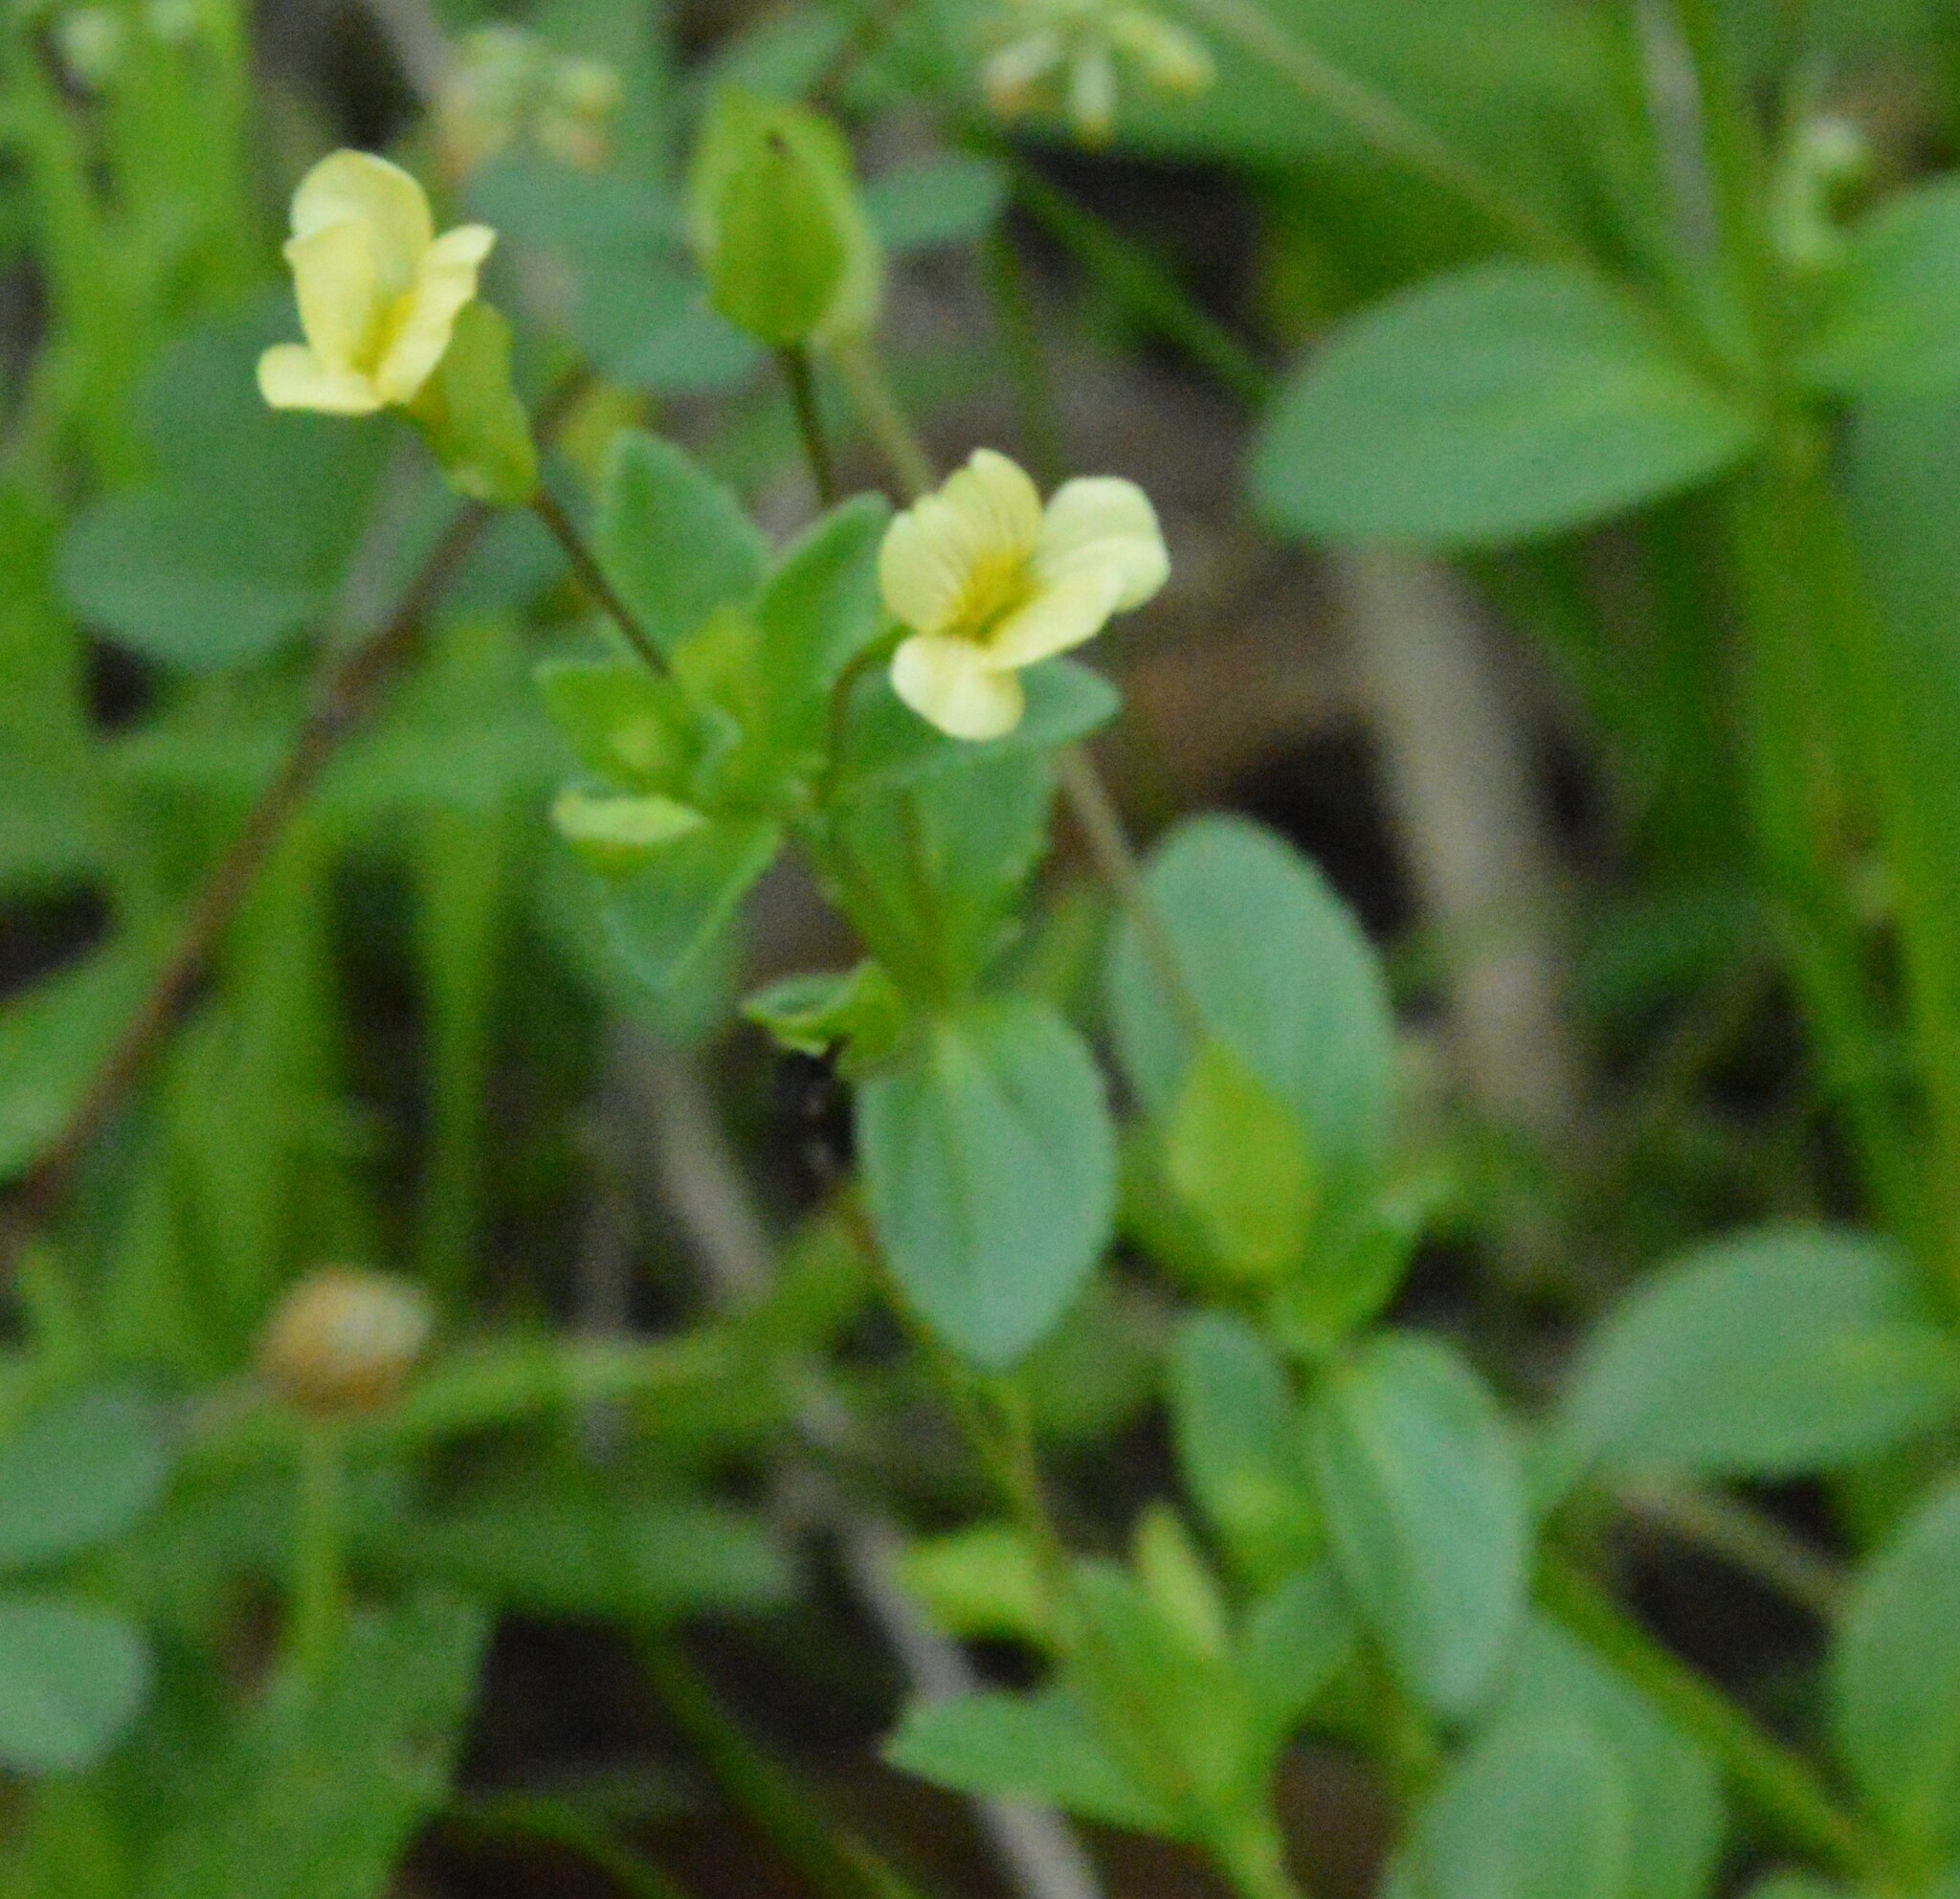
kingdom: Plantae
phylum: Tracheophyta
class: Magnoliopsida
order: Lamiales
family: Plantaginaceae
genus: Mecardonia
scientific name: Mecardonia procumbens
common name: Baby jump-up
